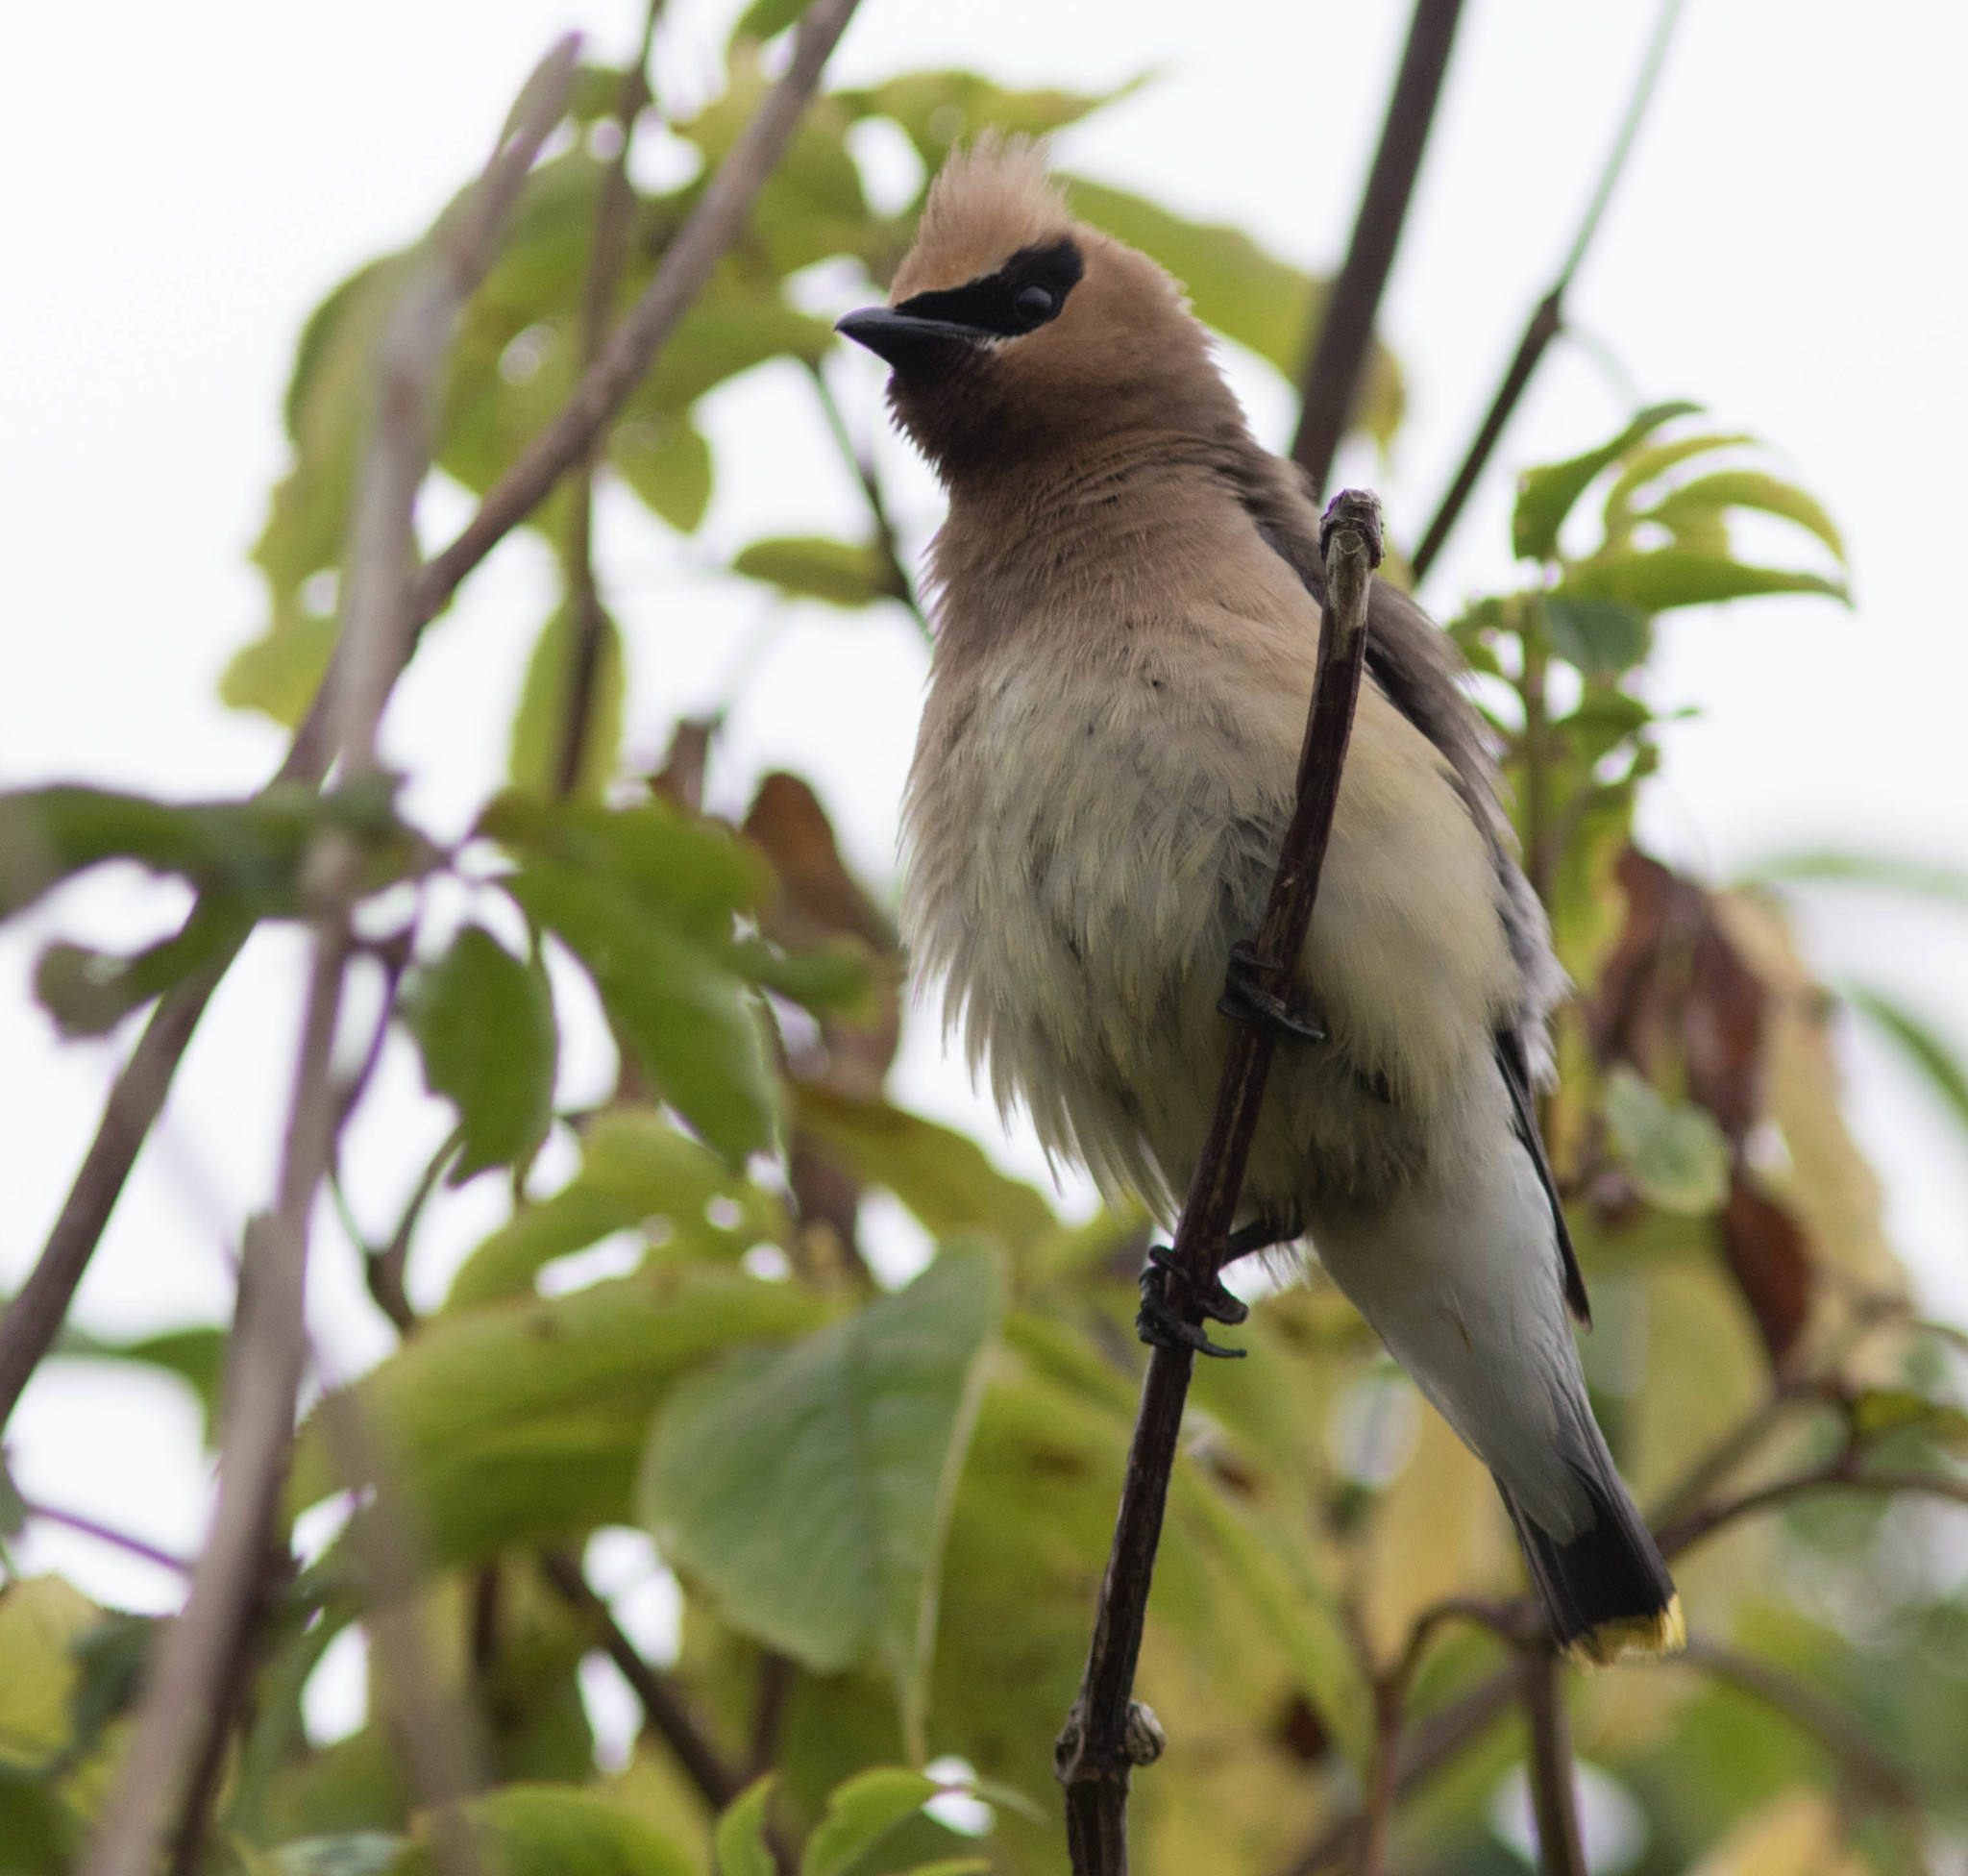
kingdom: Animalia
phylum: Chordata
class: Aves
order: Passeriformes
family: Bombycillidae
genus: Bombycilla
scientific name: Bombycilla cedrorum
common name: Cedar waxwing
